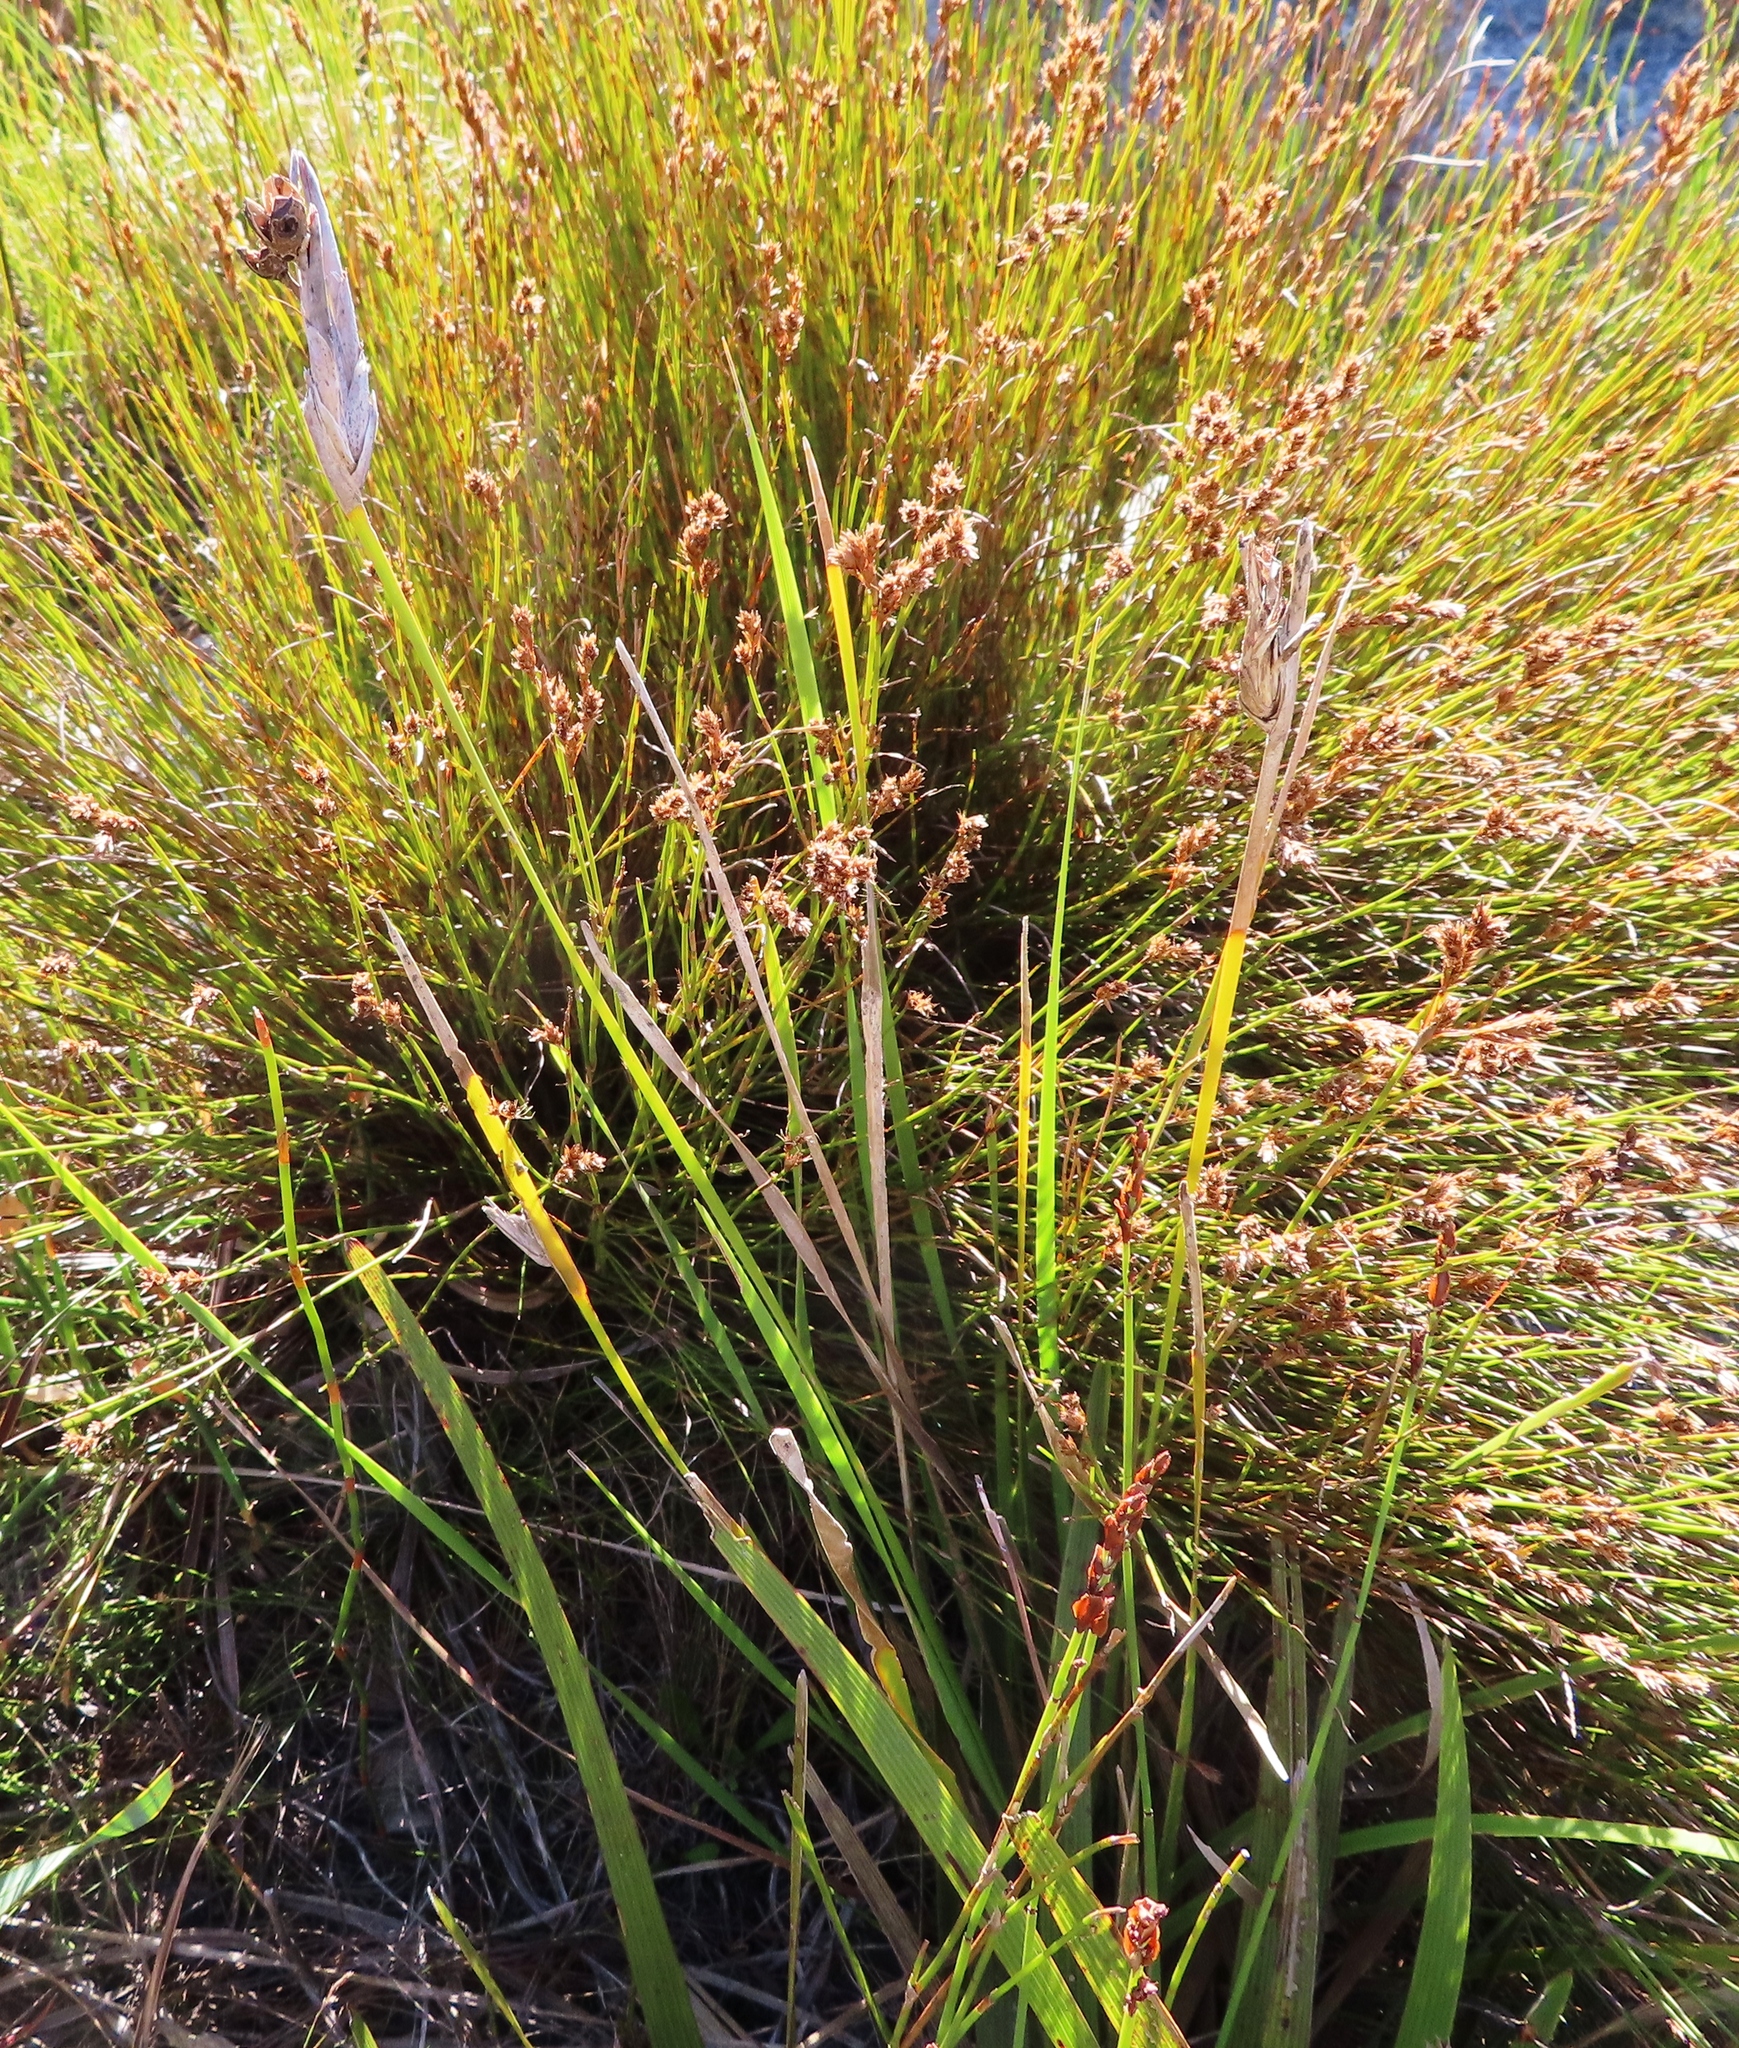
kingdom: Plantae
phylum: Tracheophyta
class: Liliopsida
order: Asparagales
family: Iridaceae
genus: Bobartia
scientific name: Bobartia gladiata
